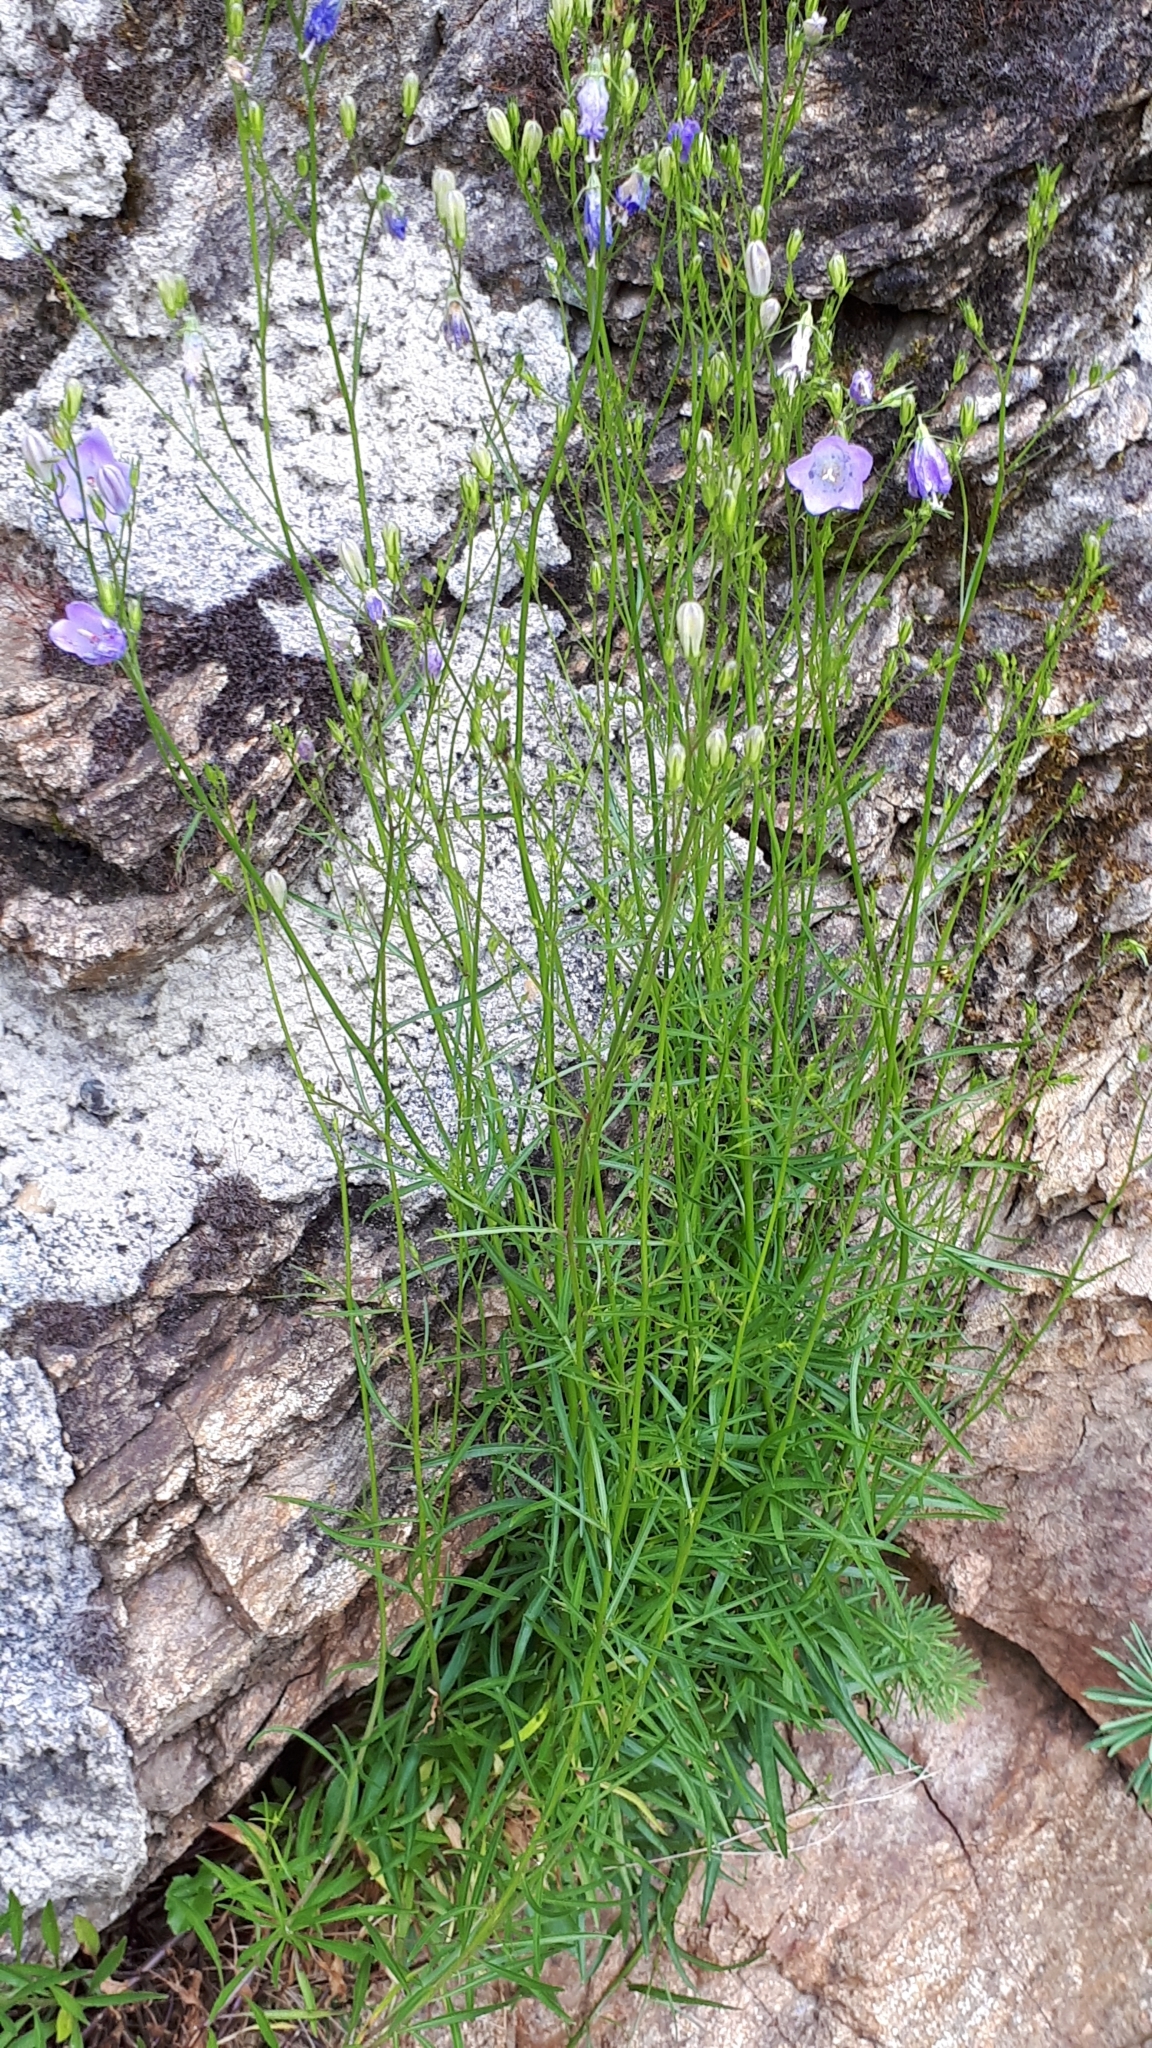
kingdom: Plantae
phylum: Tracheophyta
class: Magnoliopsida
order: Asterales
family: Campanulaceae
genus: Campanula
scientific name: Campanula rotundifolia
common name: Harebell
